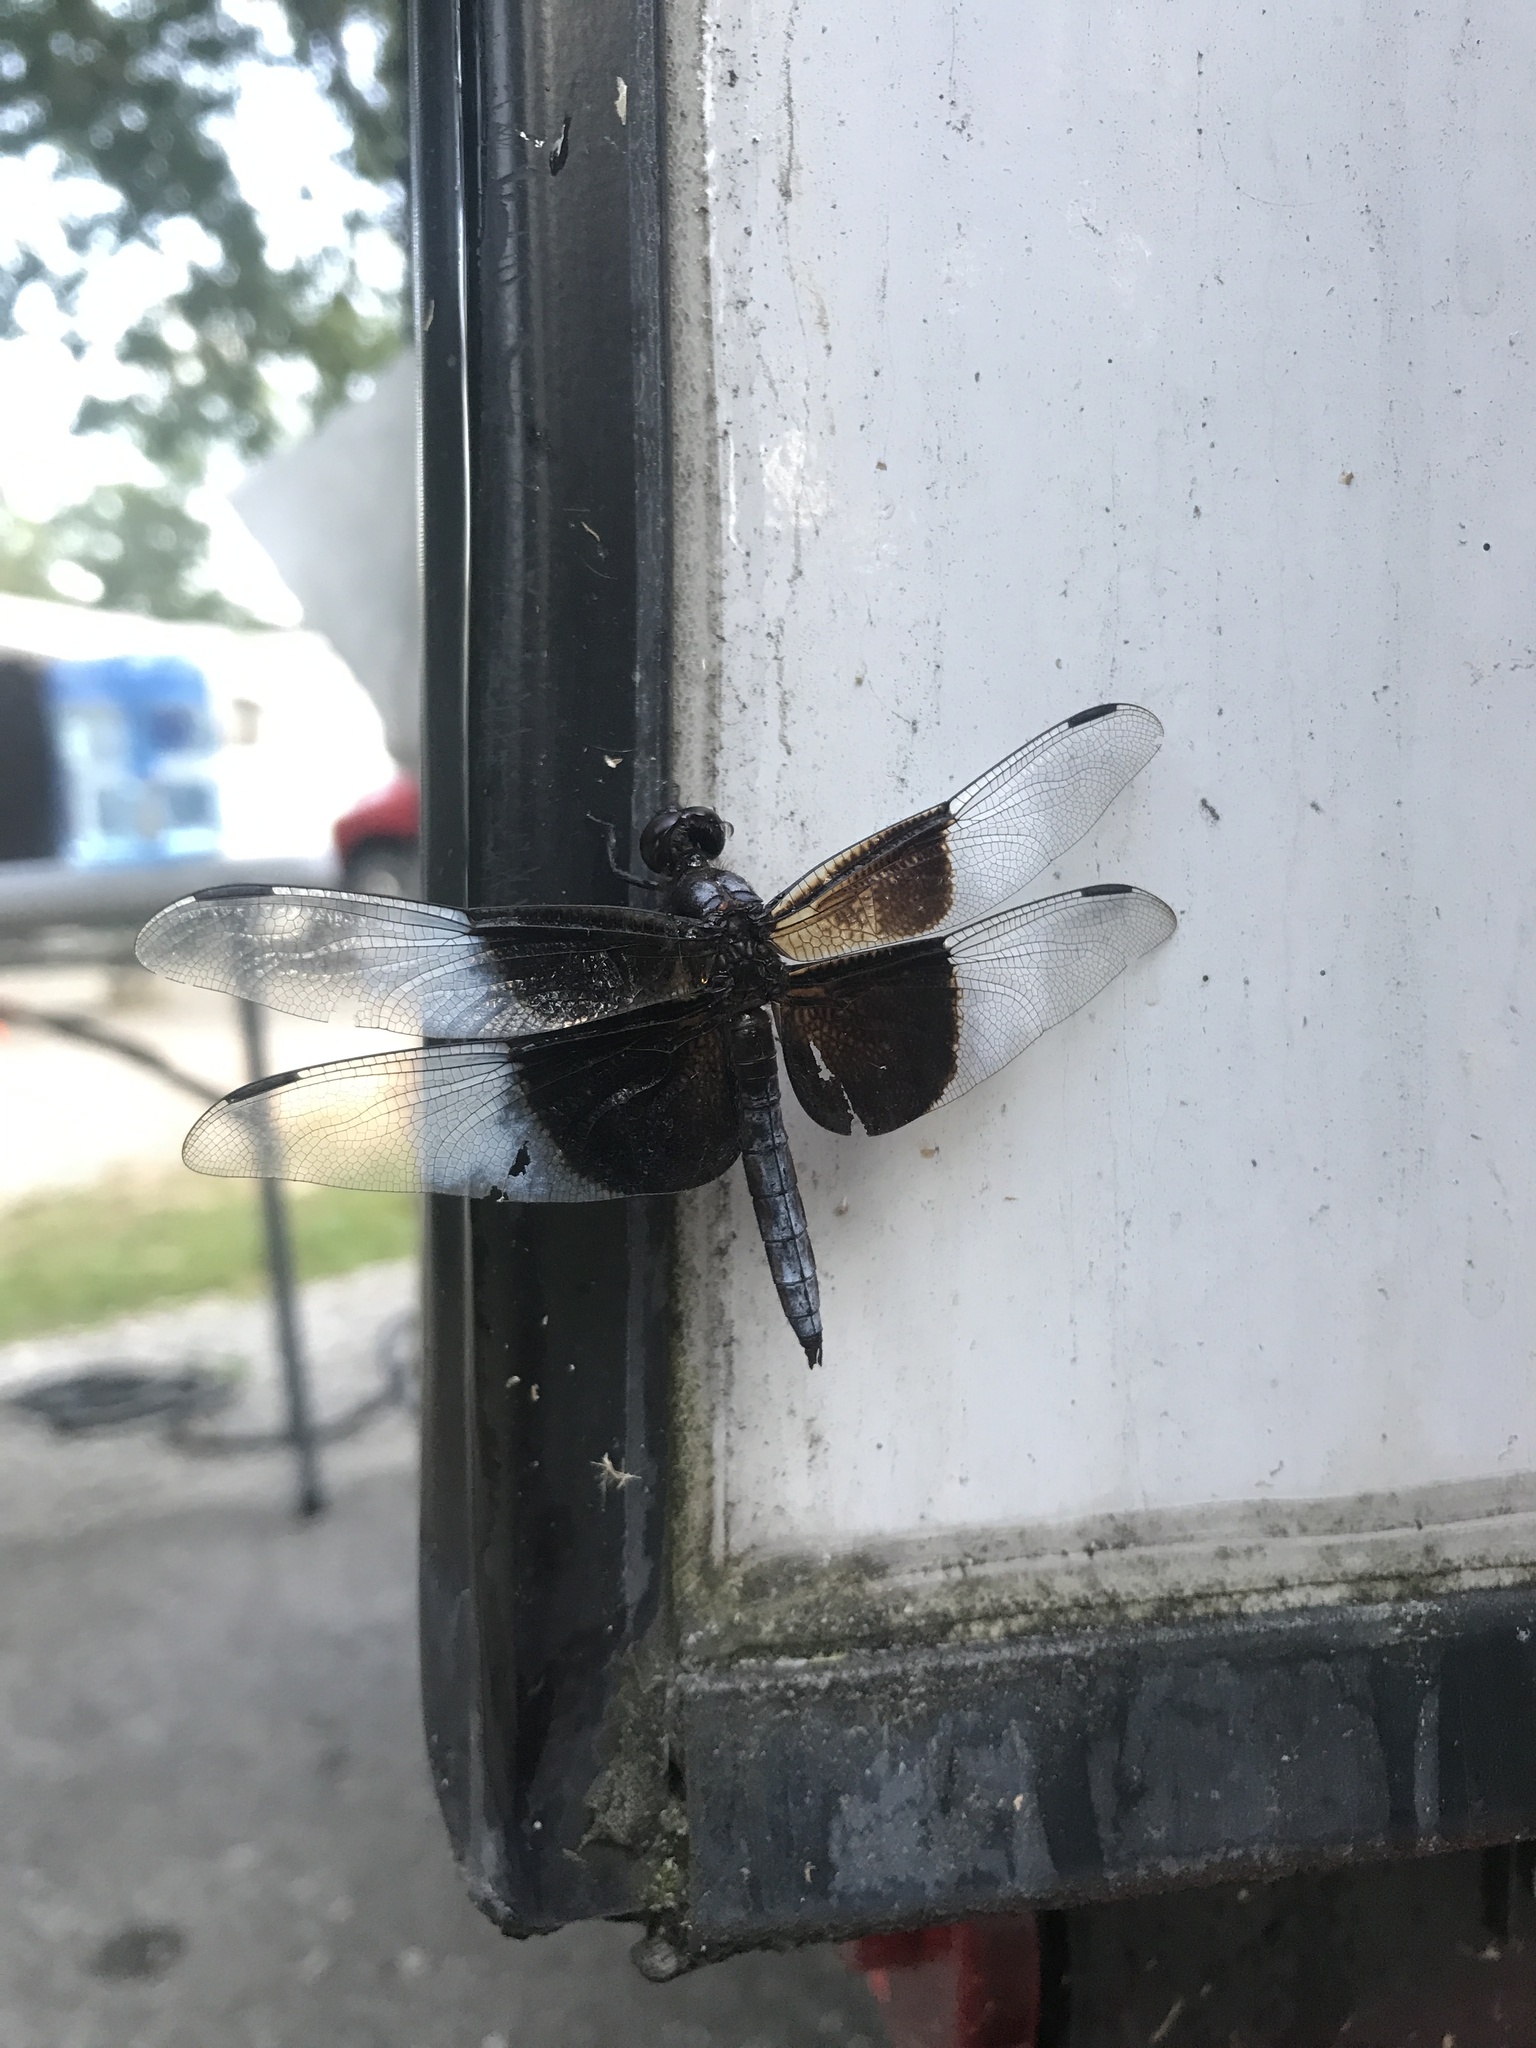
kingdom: Animalia
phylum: Arthropoda
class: Insecta
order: Odonata
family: Libellulidae
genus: Libellula
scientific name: Libellula luctuosa
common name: Widow skimmer
